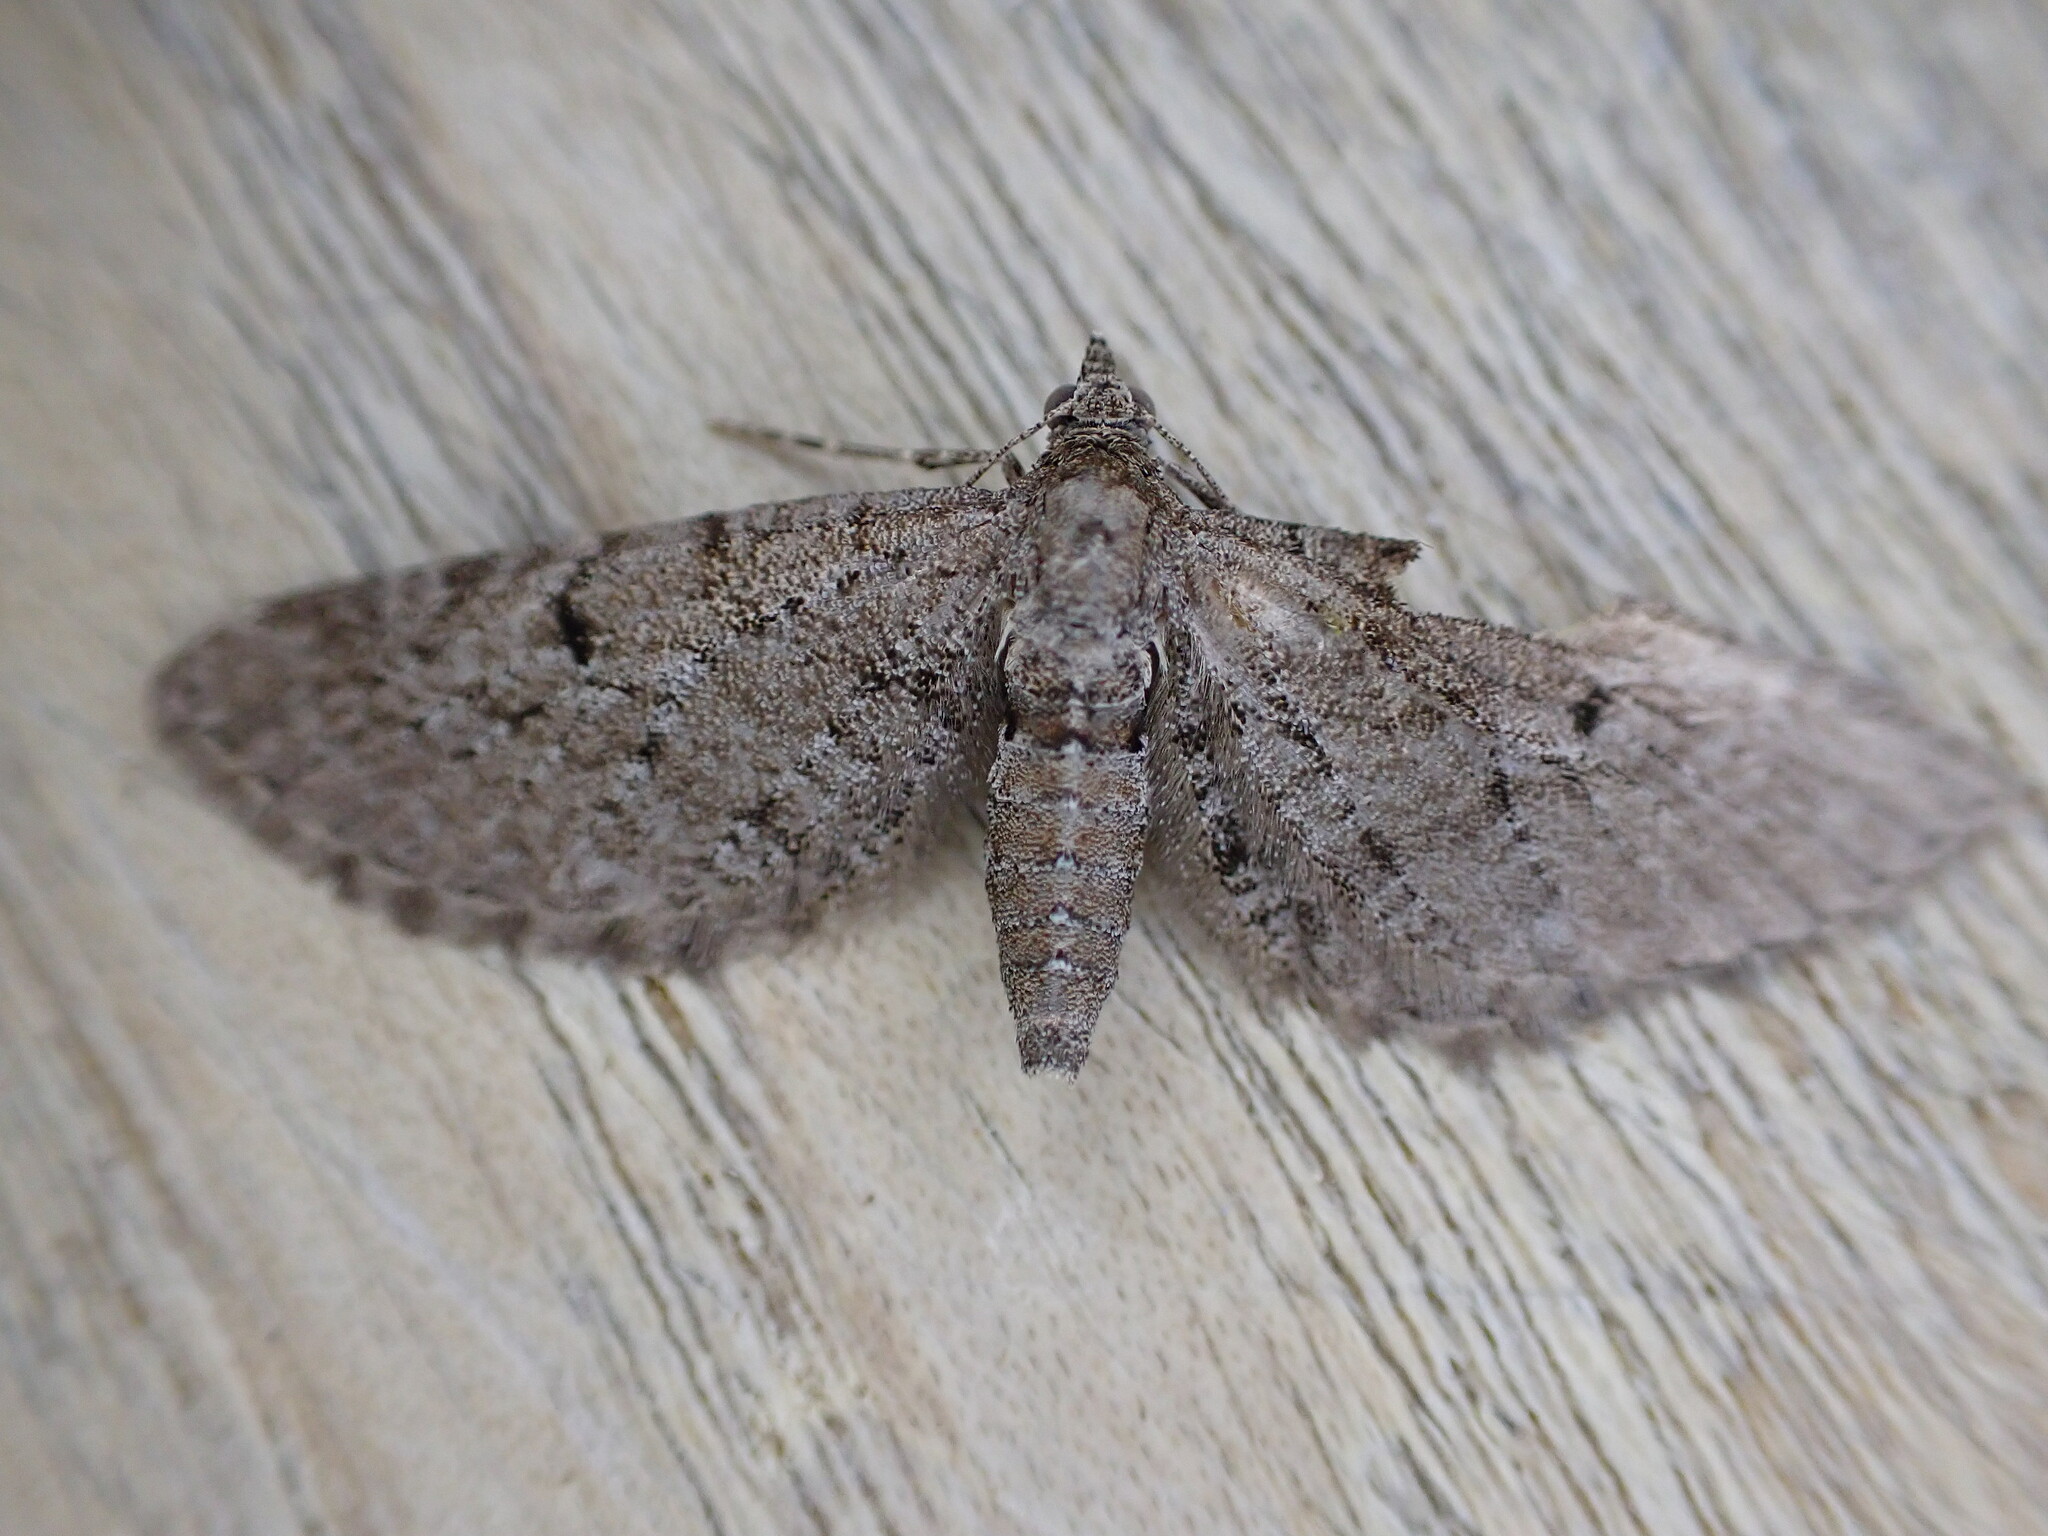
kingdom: Animalia
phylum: Arthropoda
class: Insecta
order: Lepidoptera
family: Geometridae
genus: Eupithecia
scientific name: Eupithecia intricata
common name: Freyers pug
